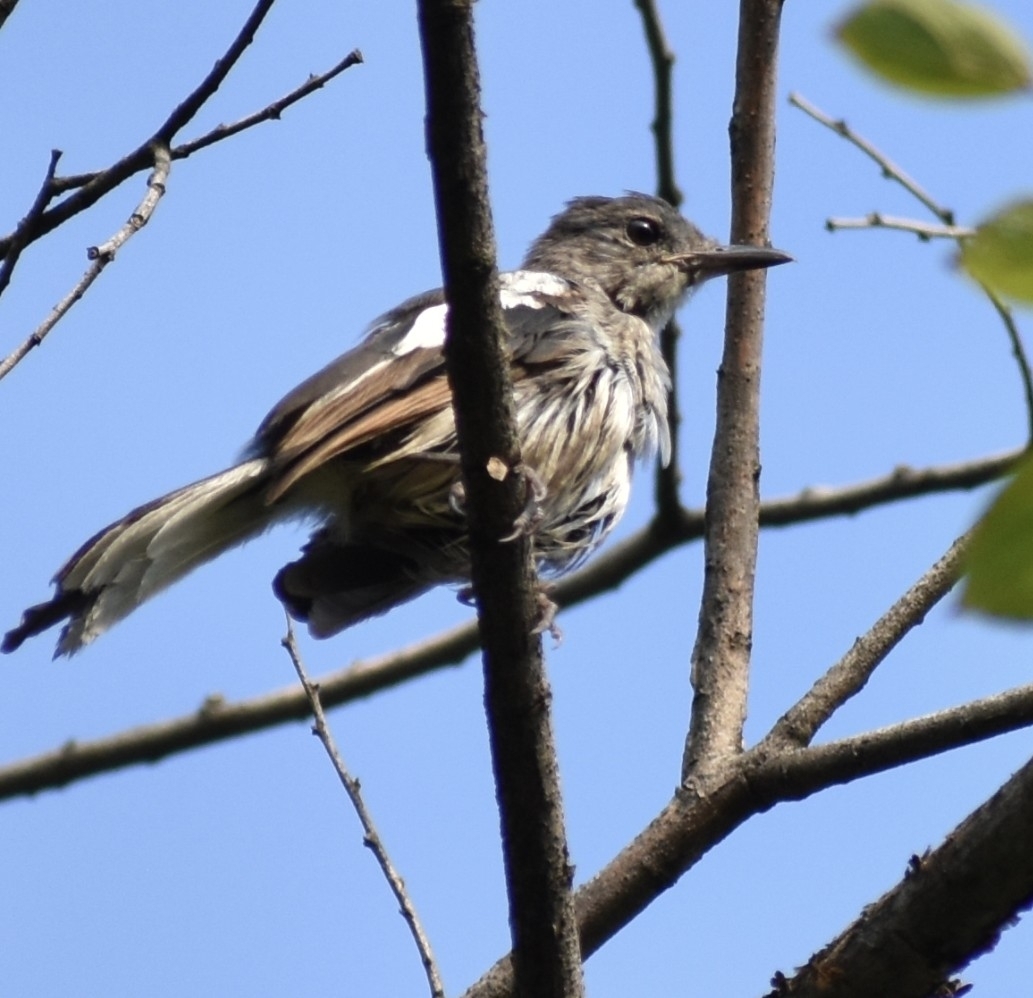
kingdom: Animalia
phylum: Chordata
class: Aves
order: Passeriformes
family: Muscicapidae
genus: Copsychus
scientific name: Copsychus saularis
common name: Oriental magpie-robin
